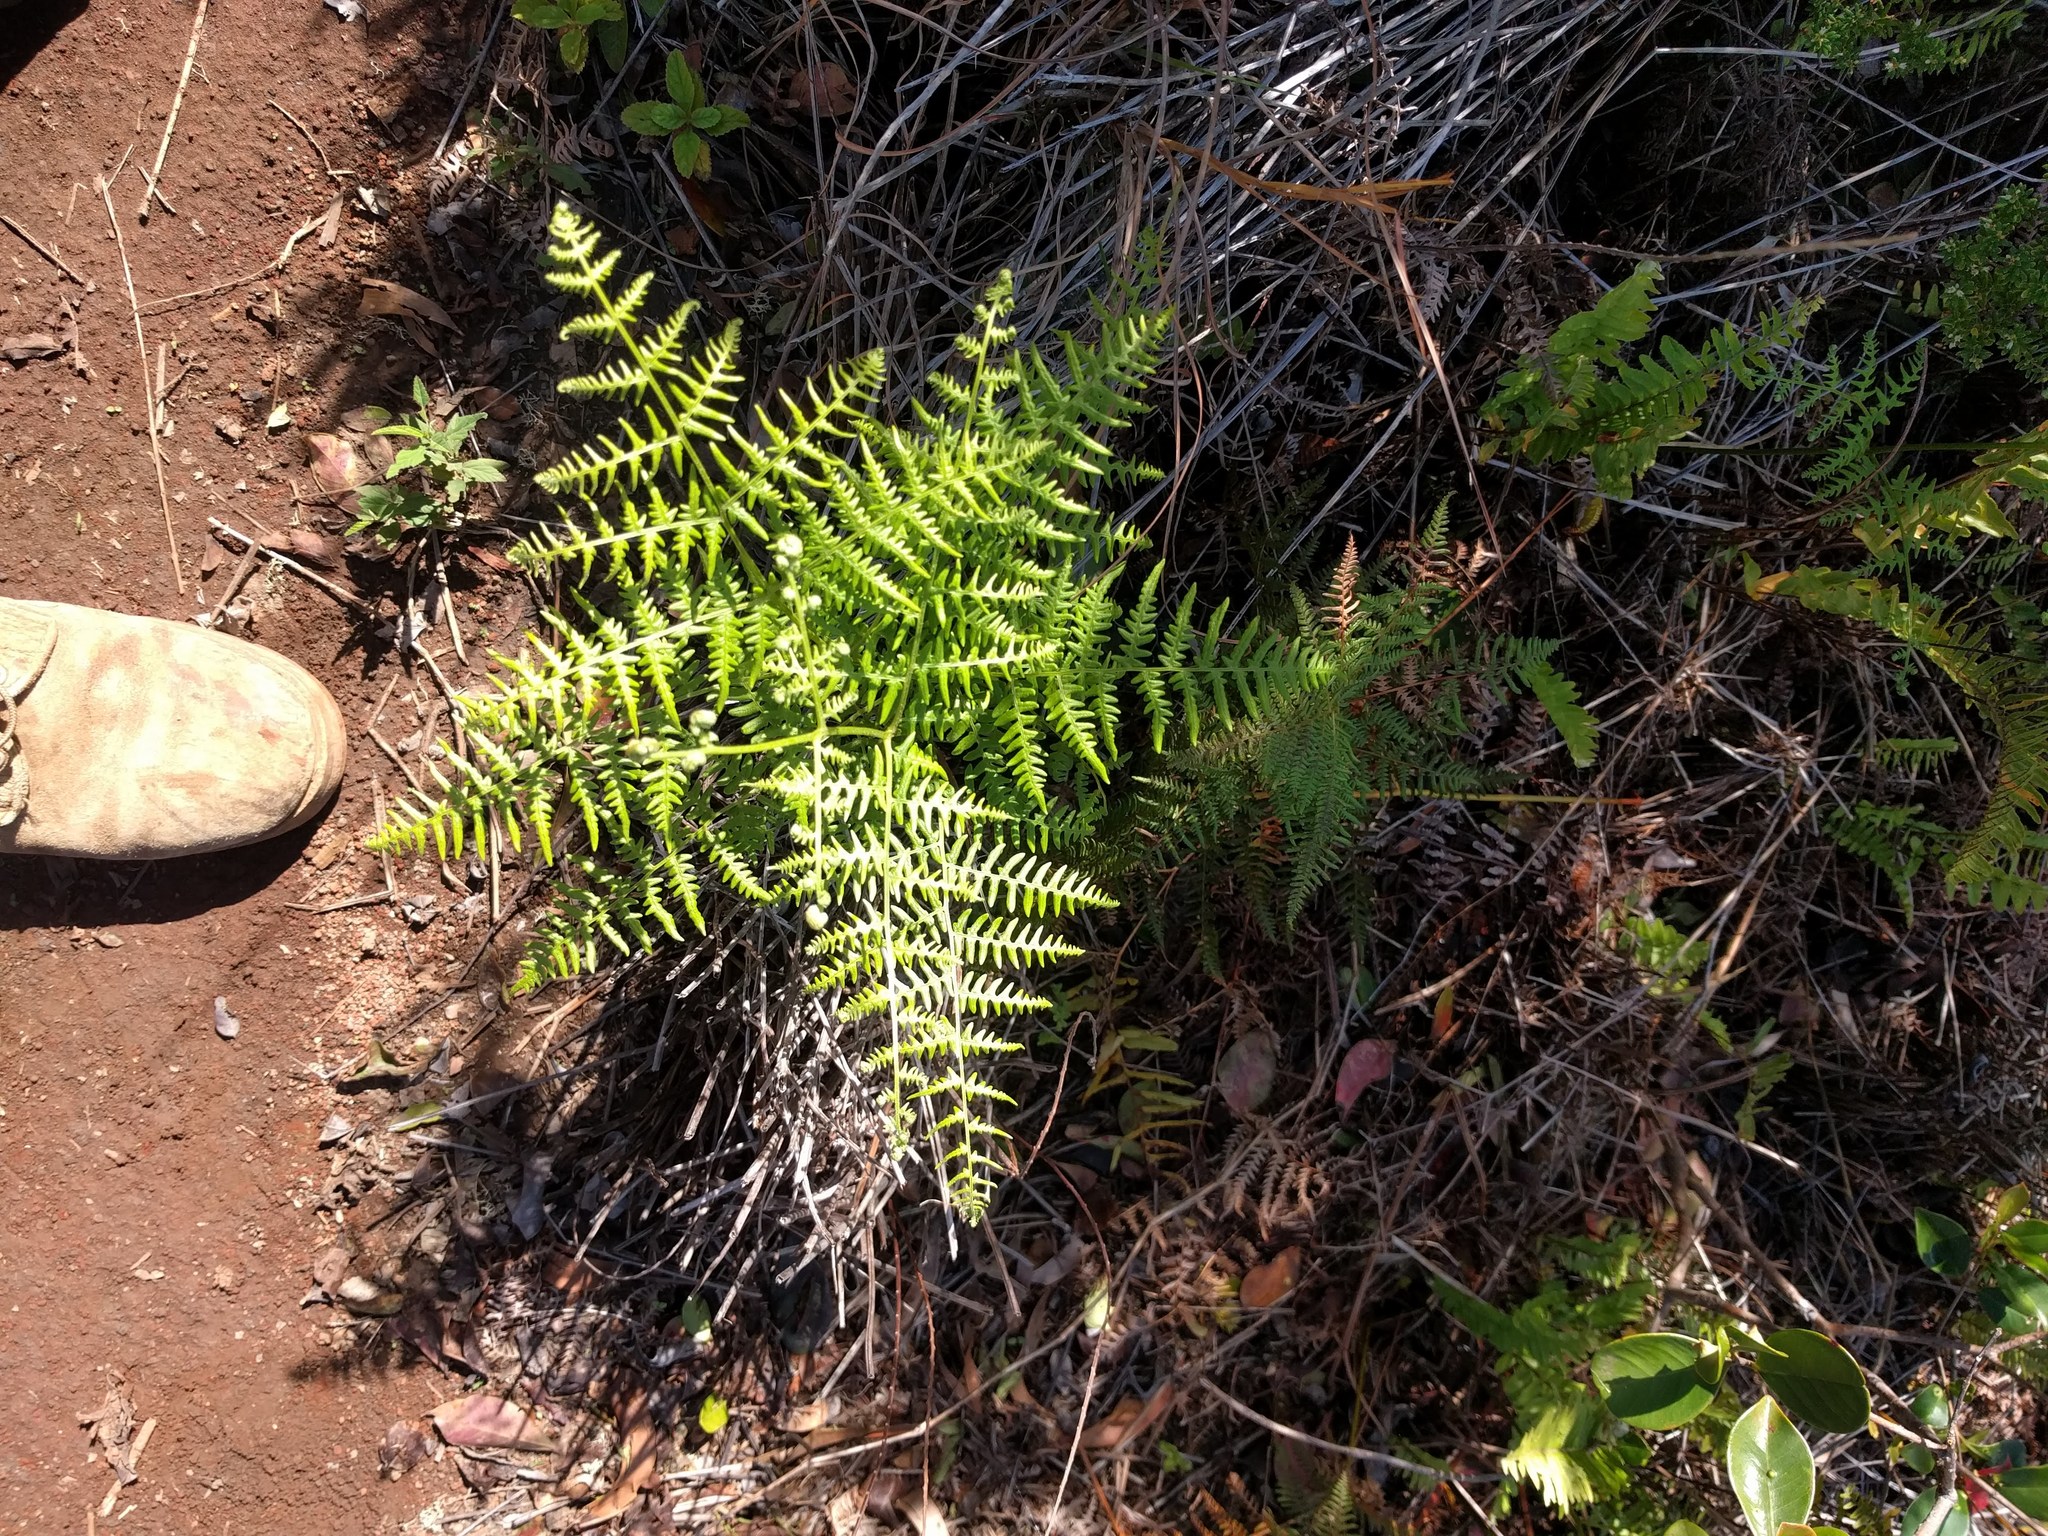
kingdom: Plantae
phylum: Tracheophyta
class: Polypodiopsida
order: Polypodiales
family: Dennstaedtiaceae
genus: Pteridium
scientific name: Pteridium aquilinum
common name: Bracken
